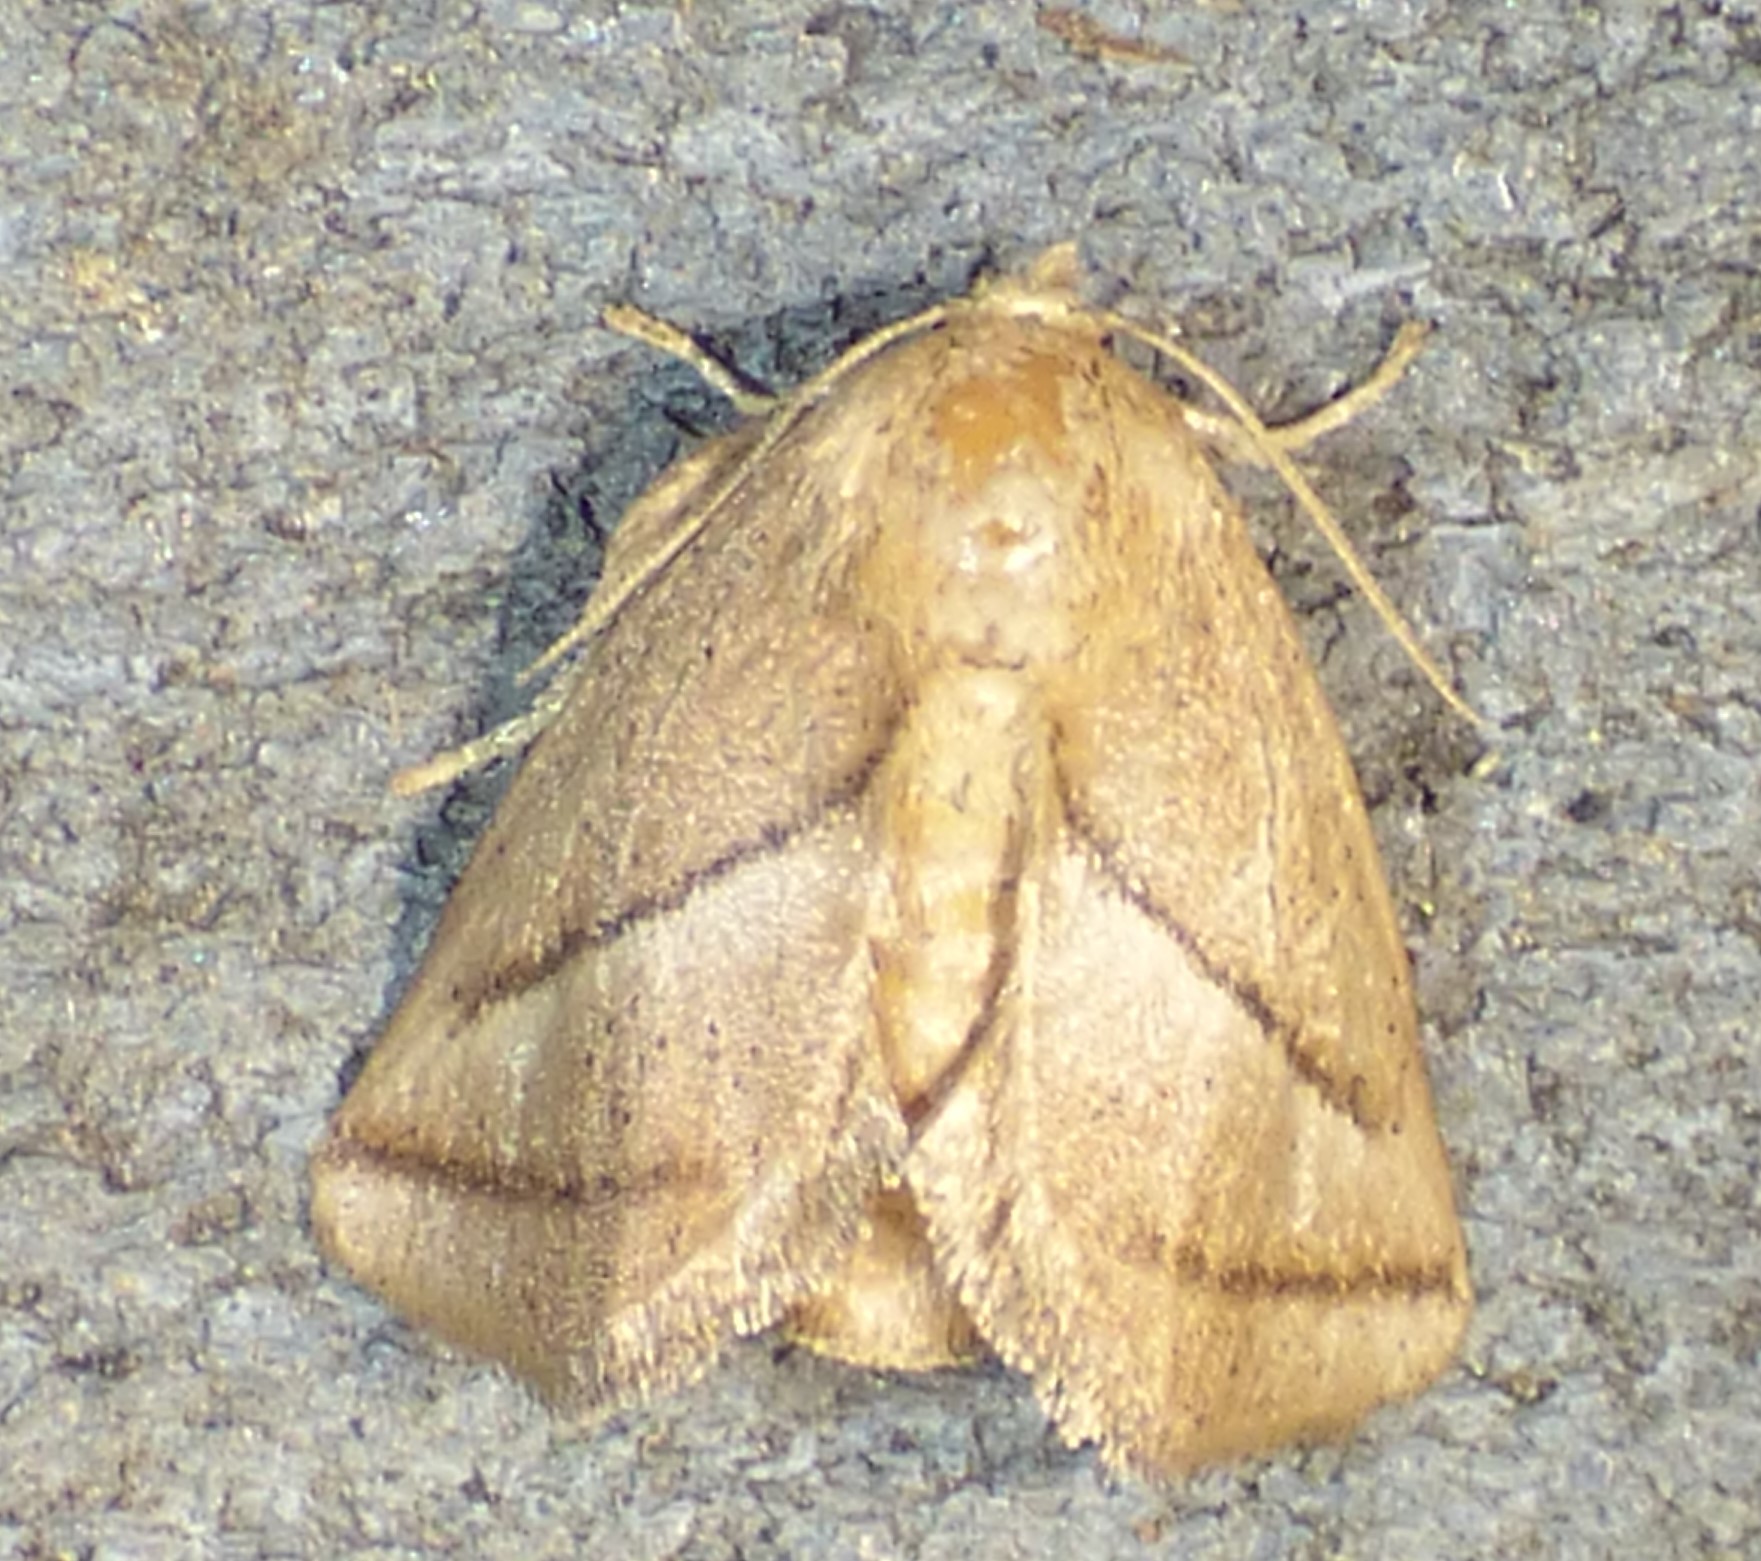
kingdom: Animalia
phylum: Arthropoda
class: Insecta
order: Lepidoptera
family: Limacodidae
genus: Natada
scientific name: Natada nasoni
